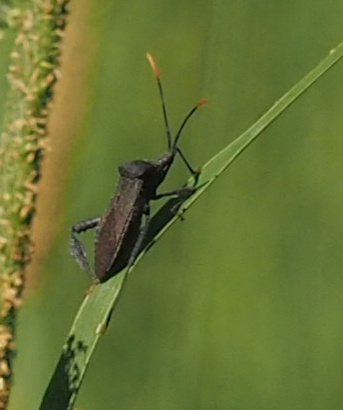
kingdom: Animalia
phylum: Arthropoda
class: Insecta
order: Hemiptera
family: Coreidae
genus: Acanthocephala
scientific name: Acanthocephala terminalis
